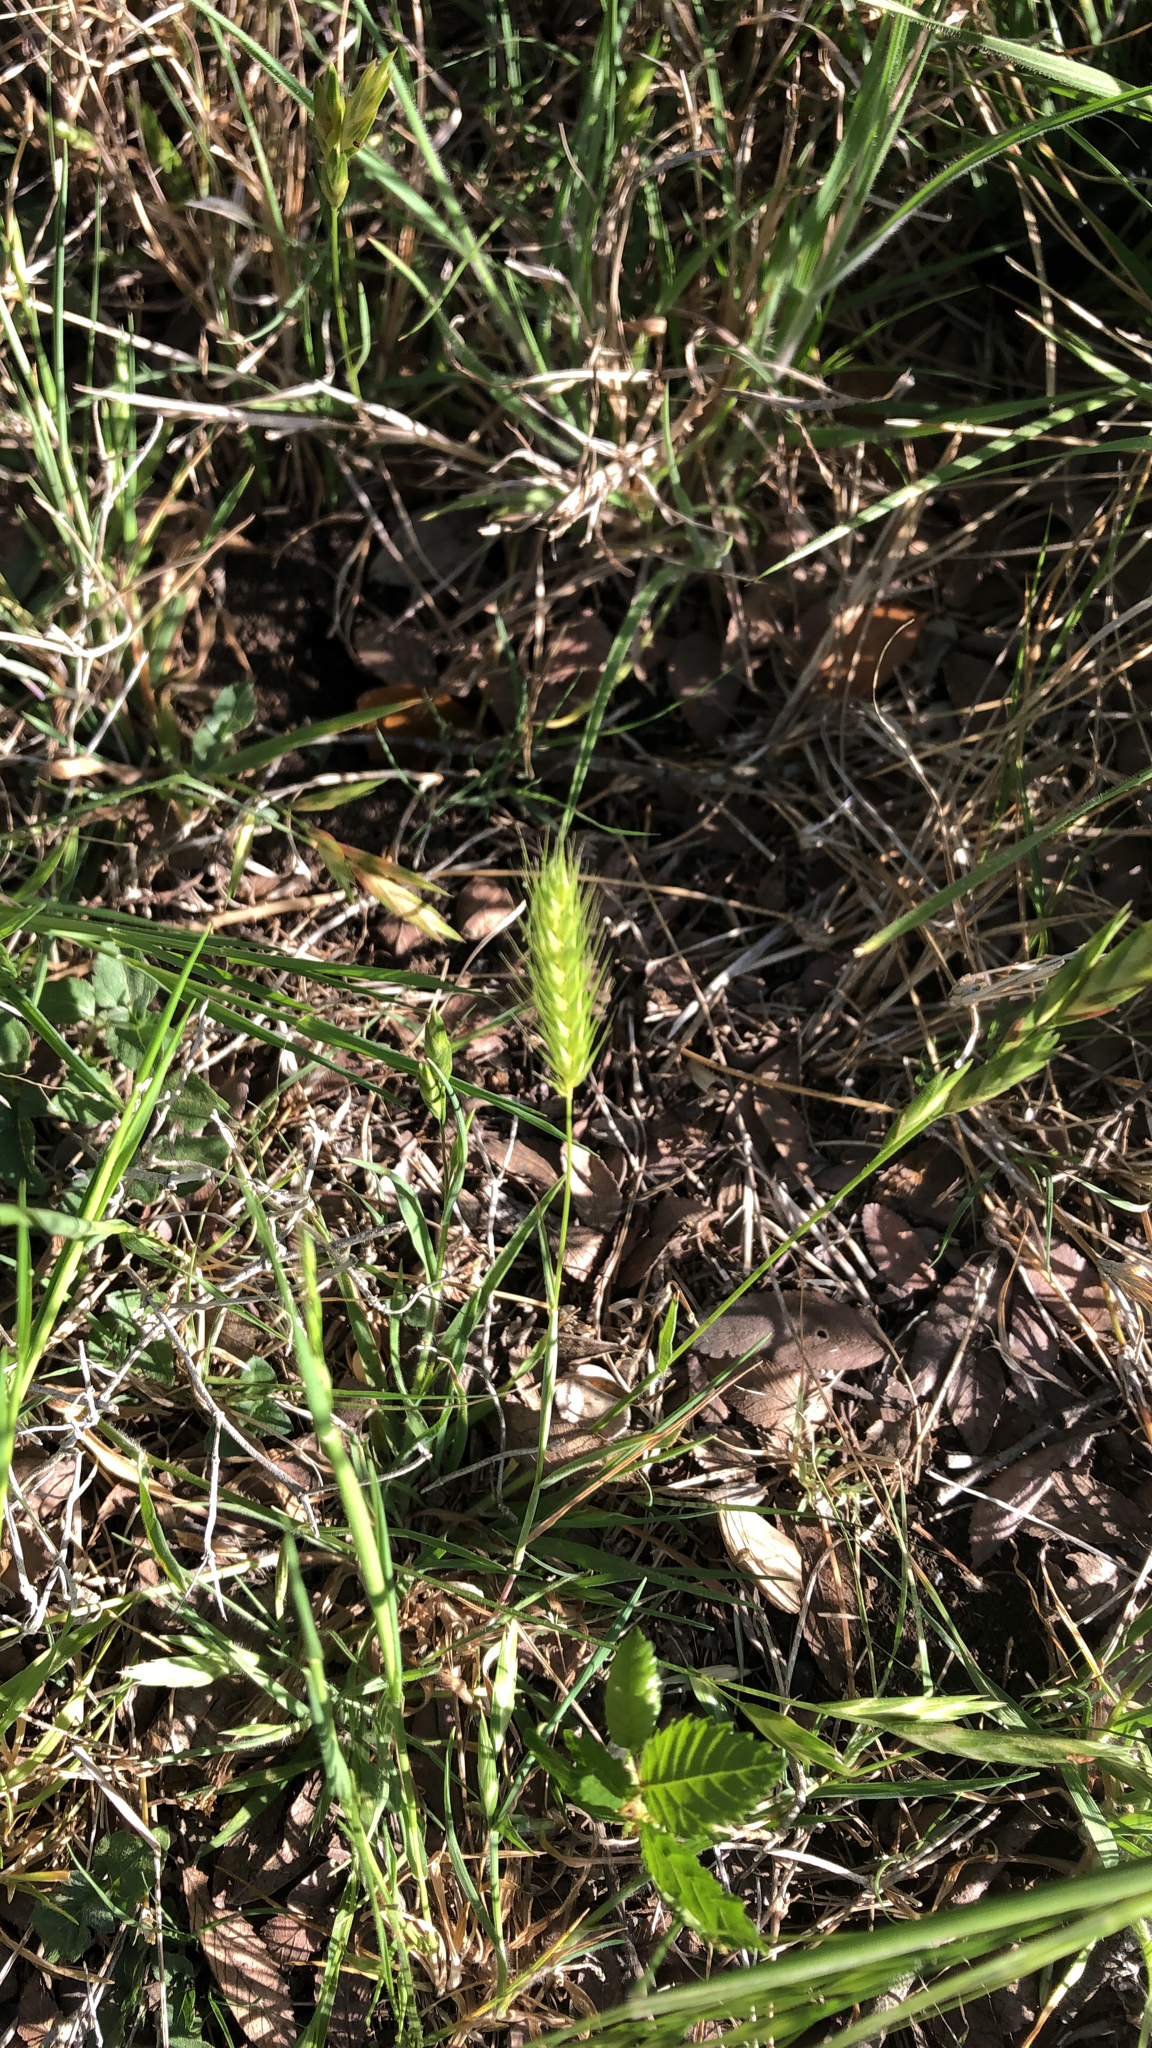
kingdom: Plantae
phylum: Tracheophyta
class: Liliopsida
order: Poales
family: Poaceae
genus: Hordeum
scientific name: Hordeum pusillum
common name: Little barley
